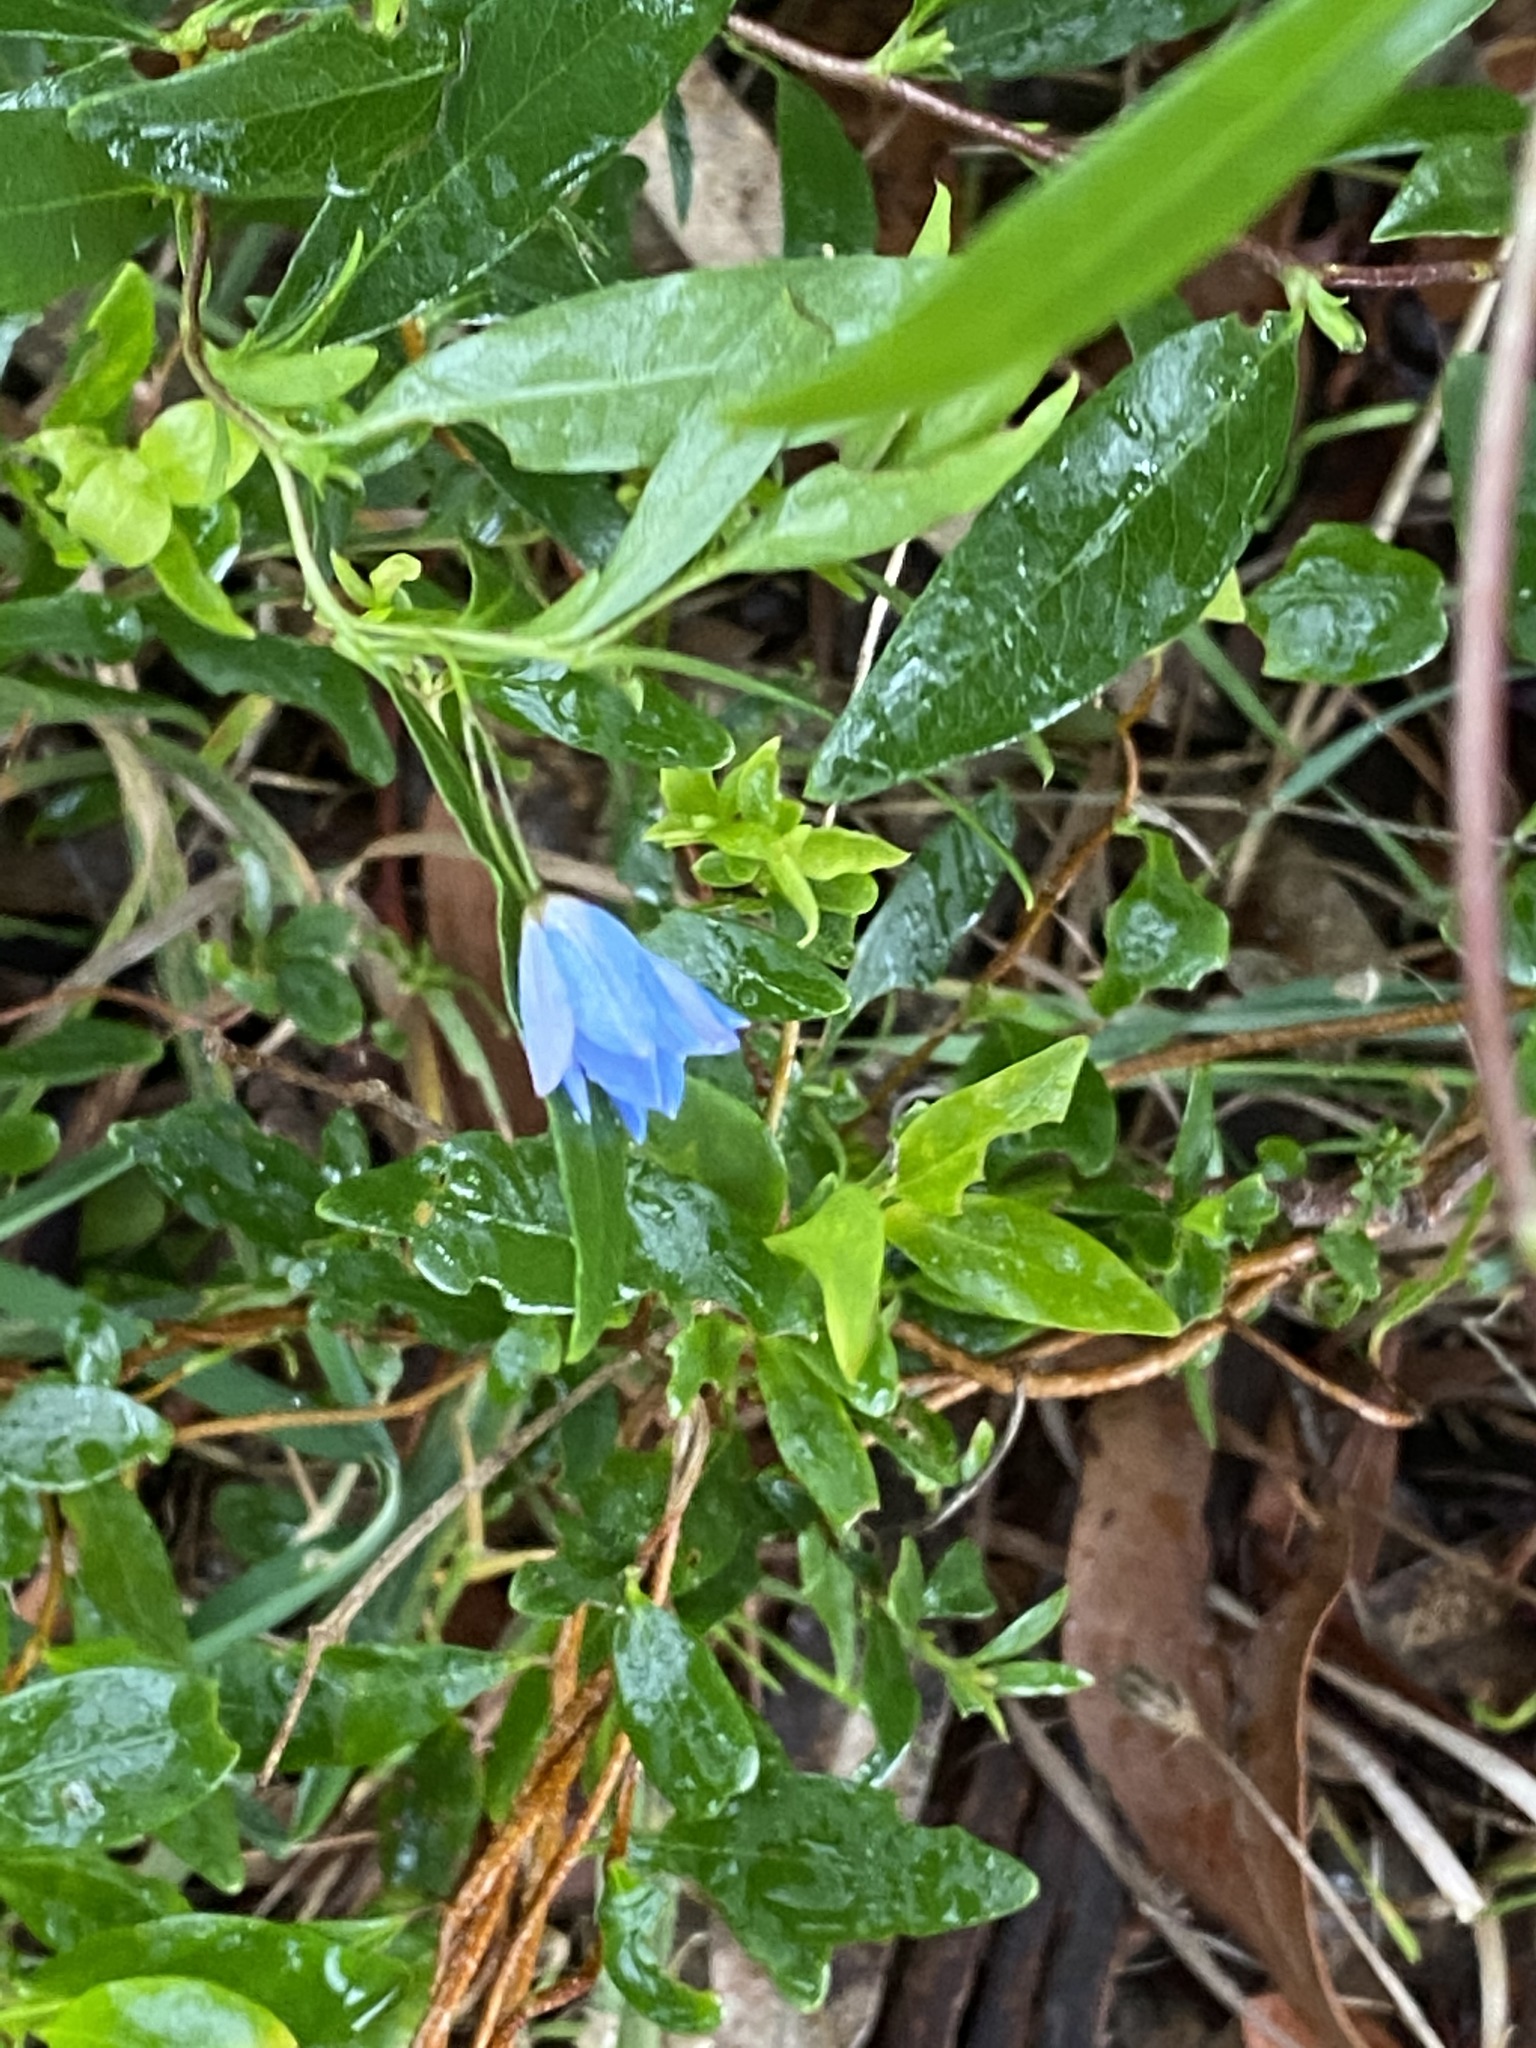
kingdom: Plantae
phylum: Tracheophyta
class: Magnoliopsida
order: Apiales
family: Pittosporaceae
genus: Billardiera
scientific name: Billardiera fusiformis
